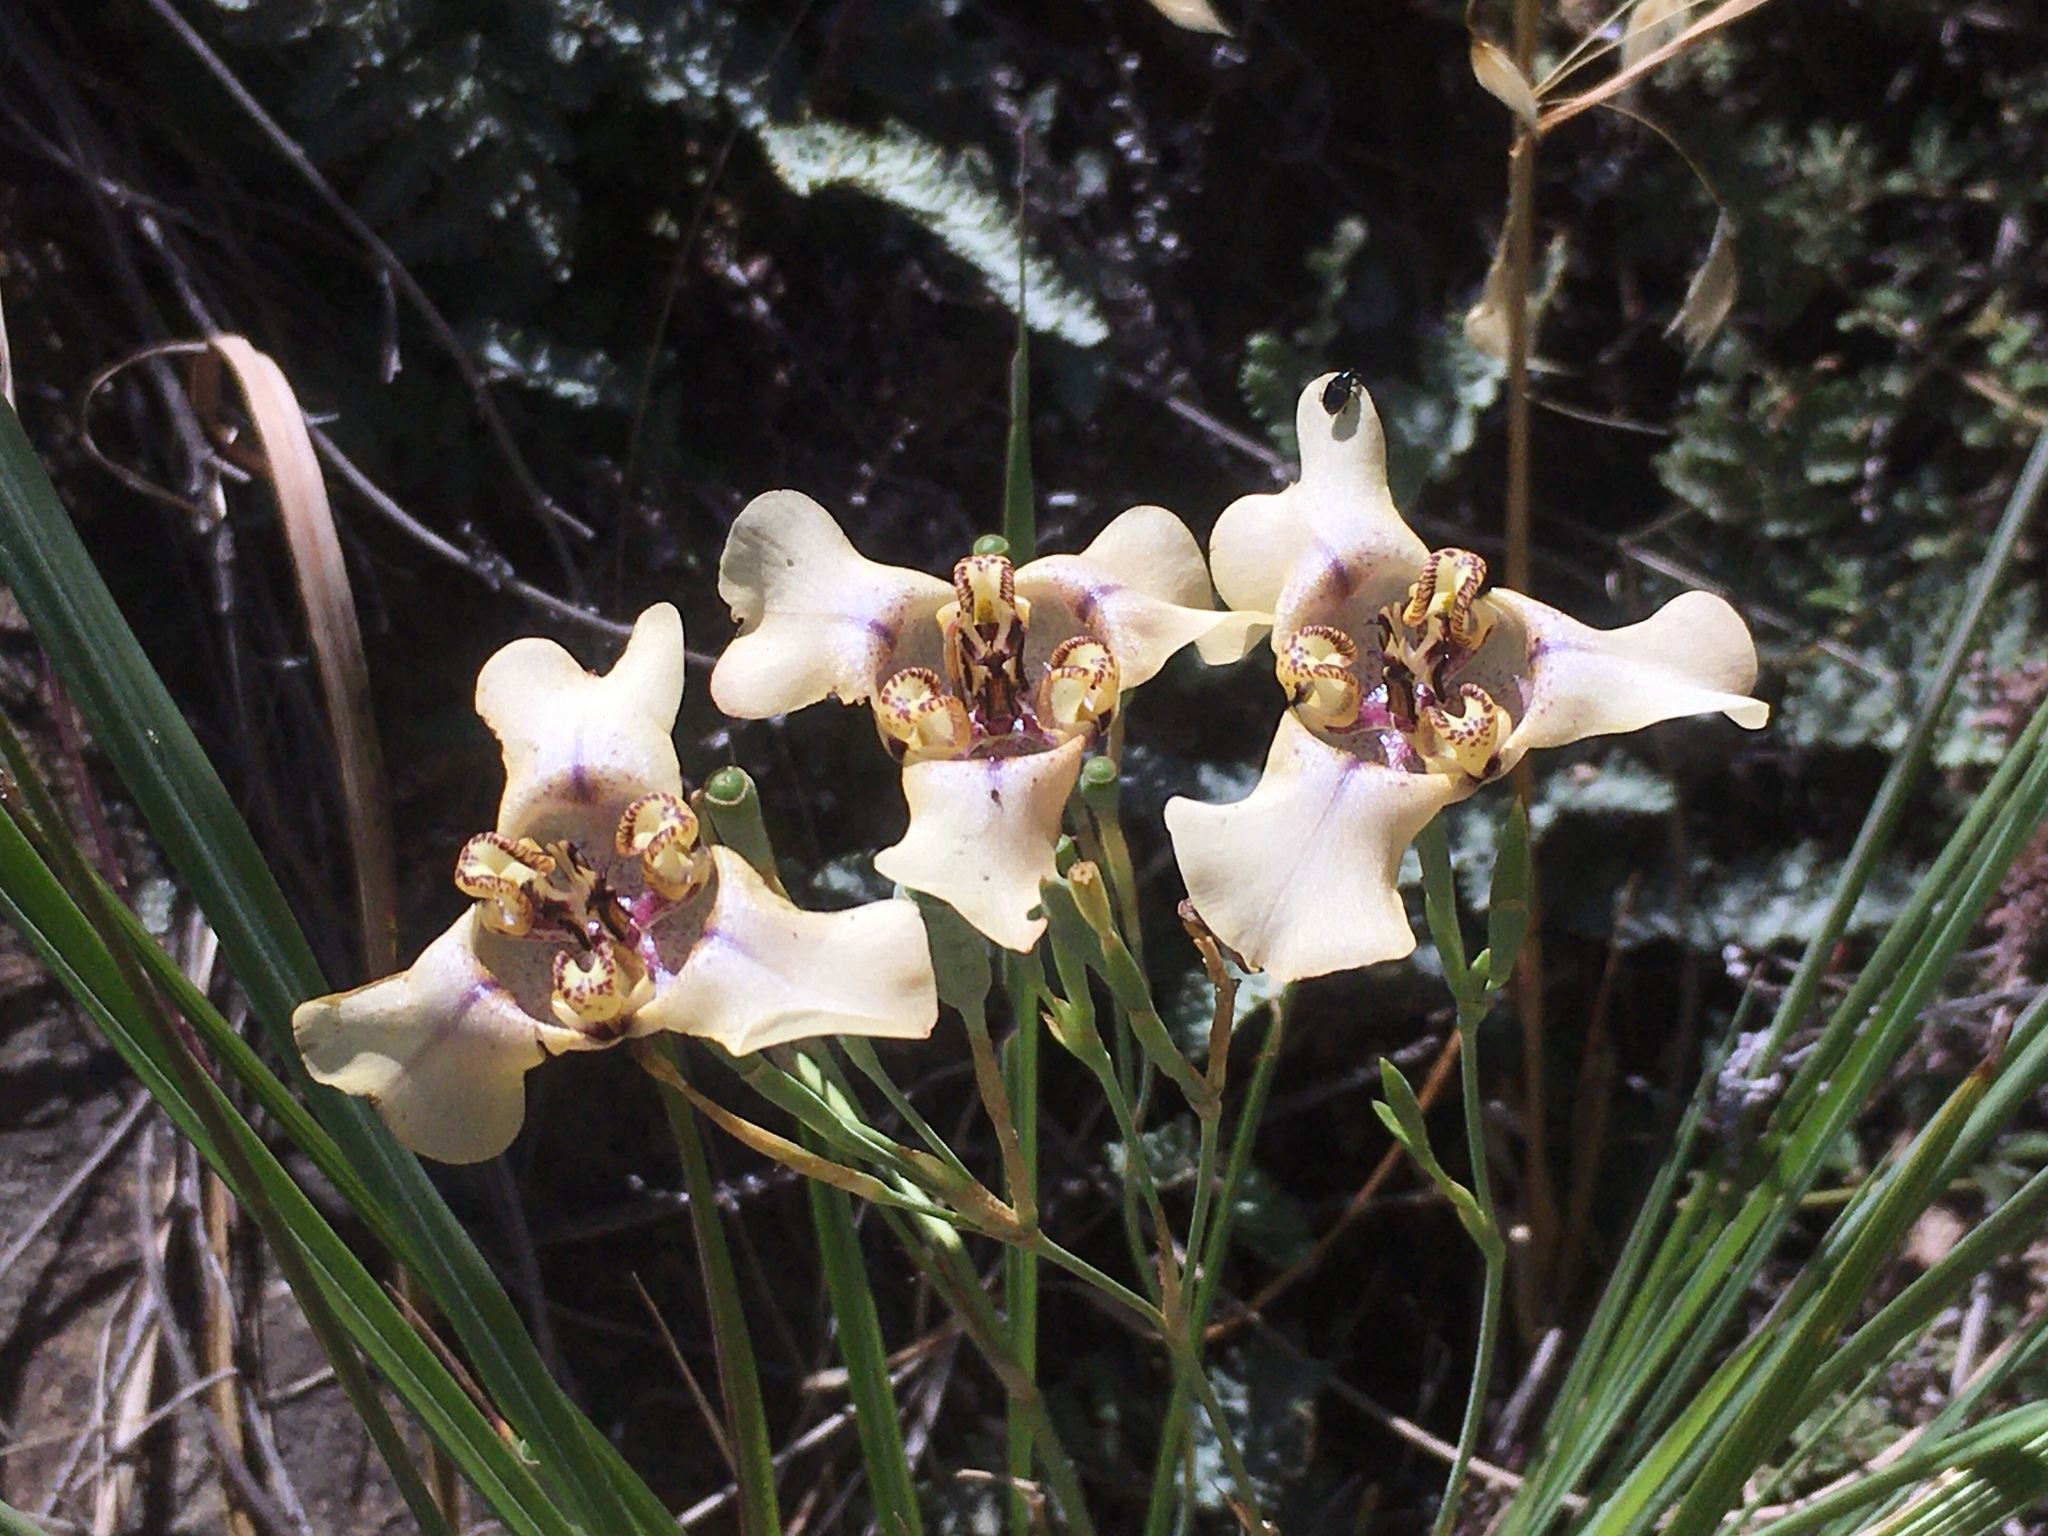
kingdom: Plantae
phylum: Tracheophyta
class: Liliopsida
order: Asparagales
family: Iridaceae
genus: Cypella
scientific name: Cypella herbertii
